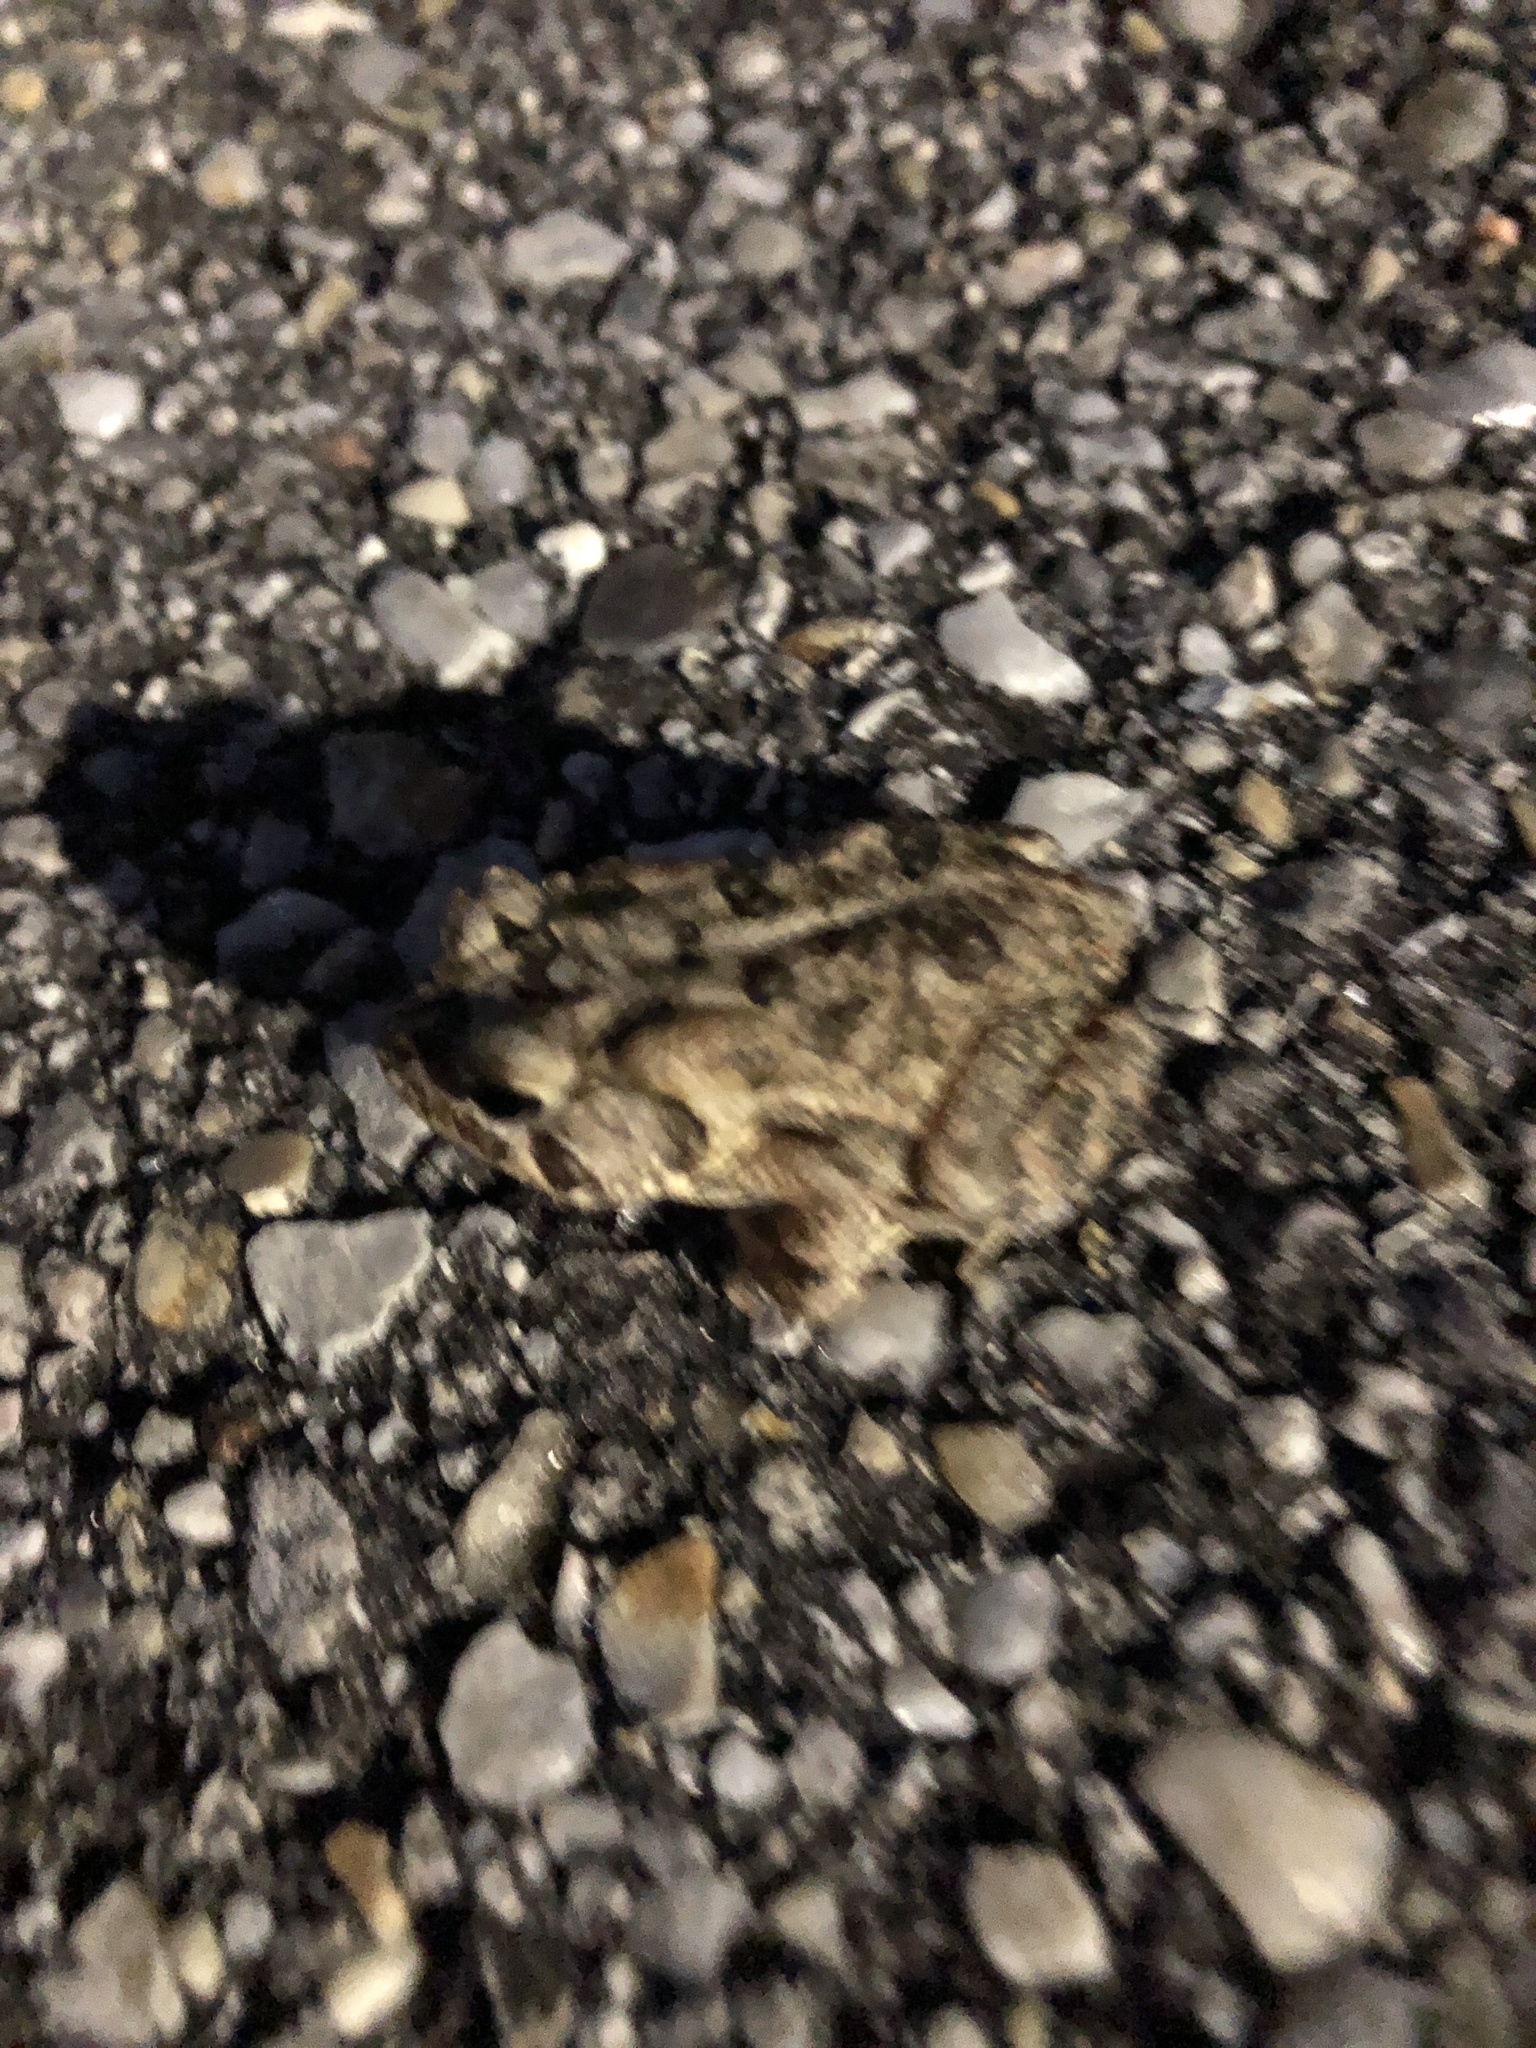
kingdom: Animalia
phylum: Chordata
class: Amphibia
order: Anura
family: Bufonidae
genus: Anaxyrus
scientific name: Anaxyrus terrestris
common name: Southern toad
